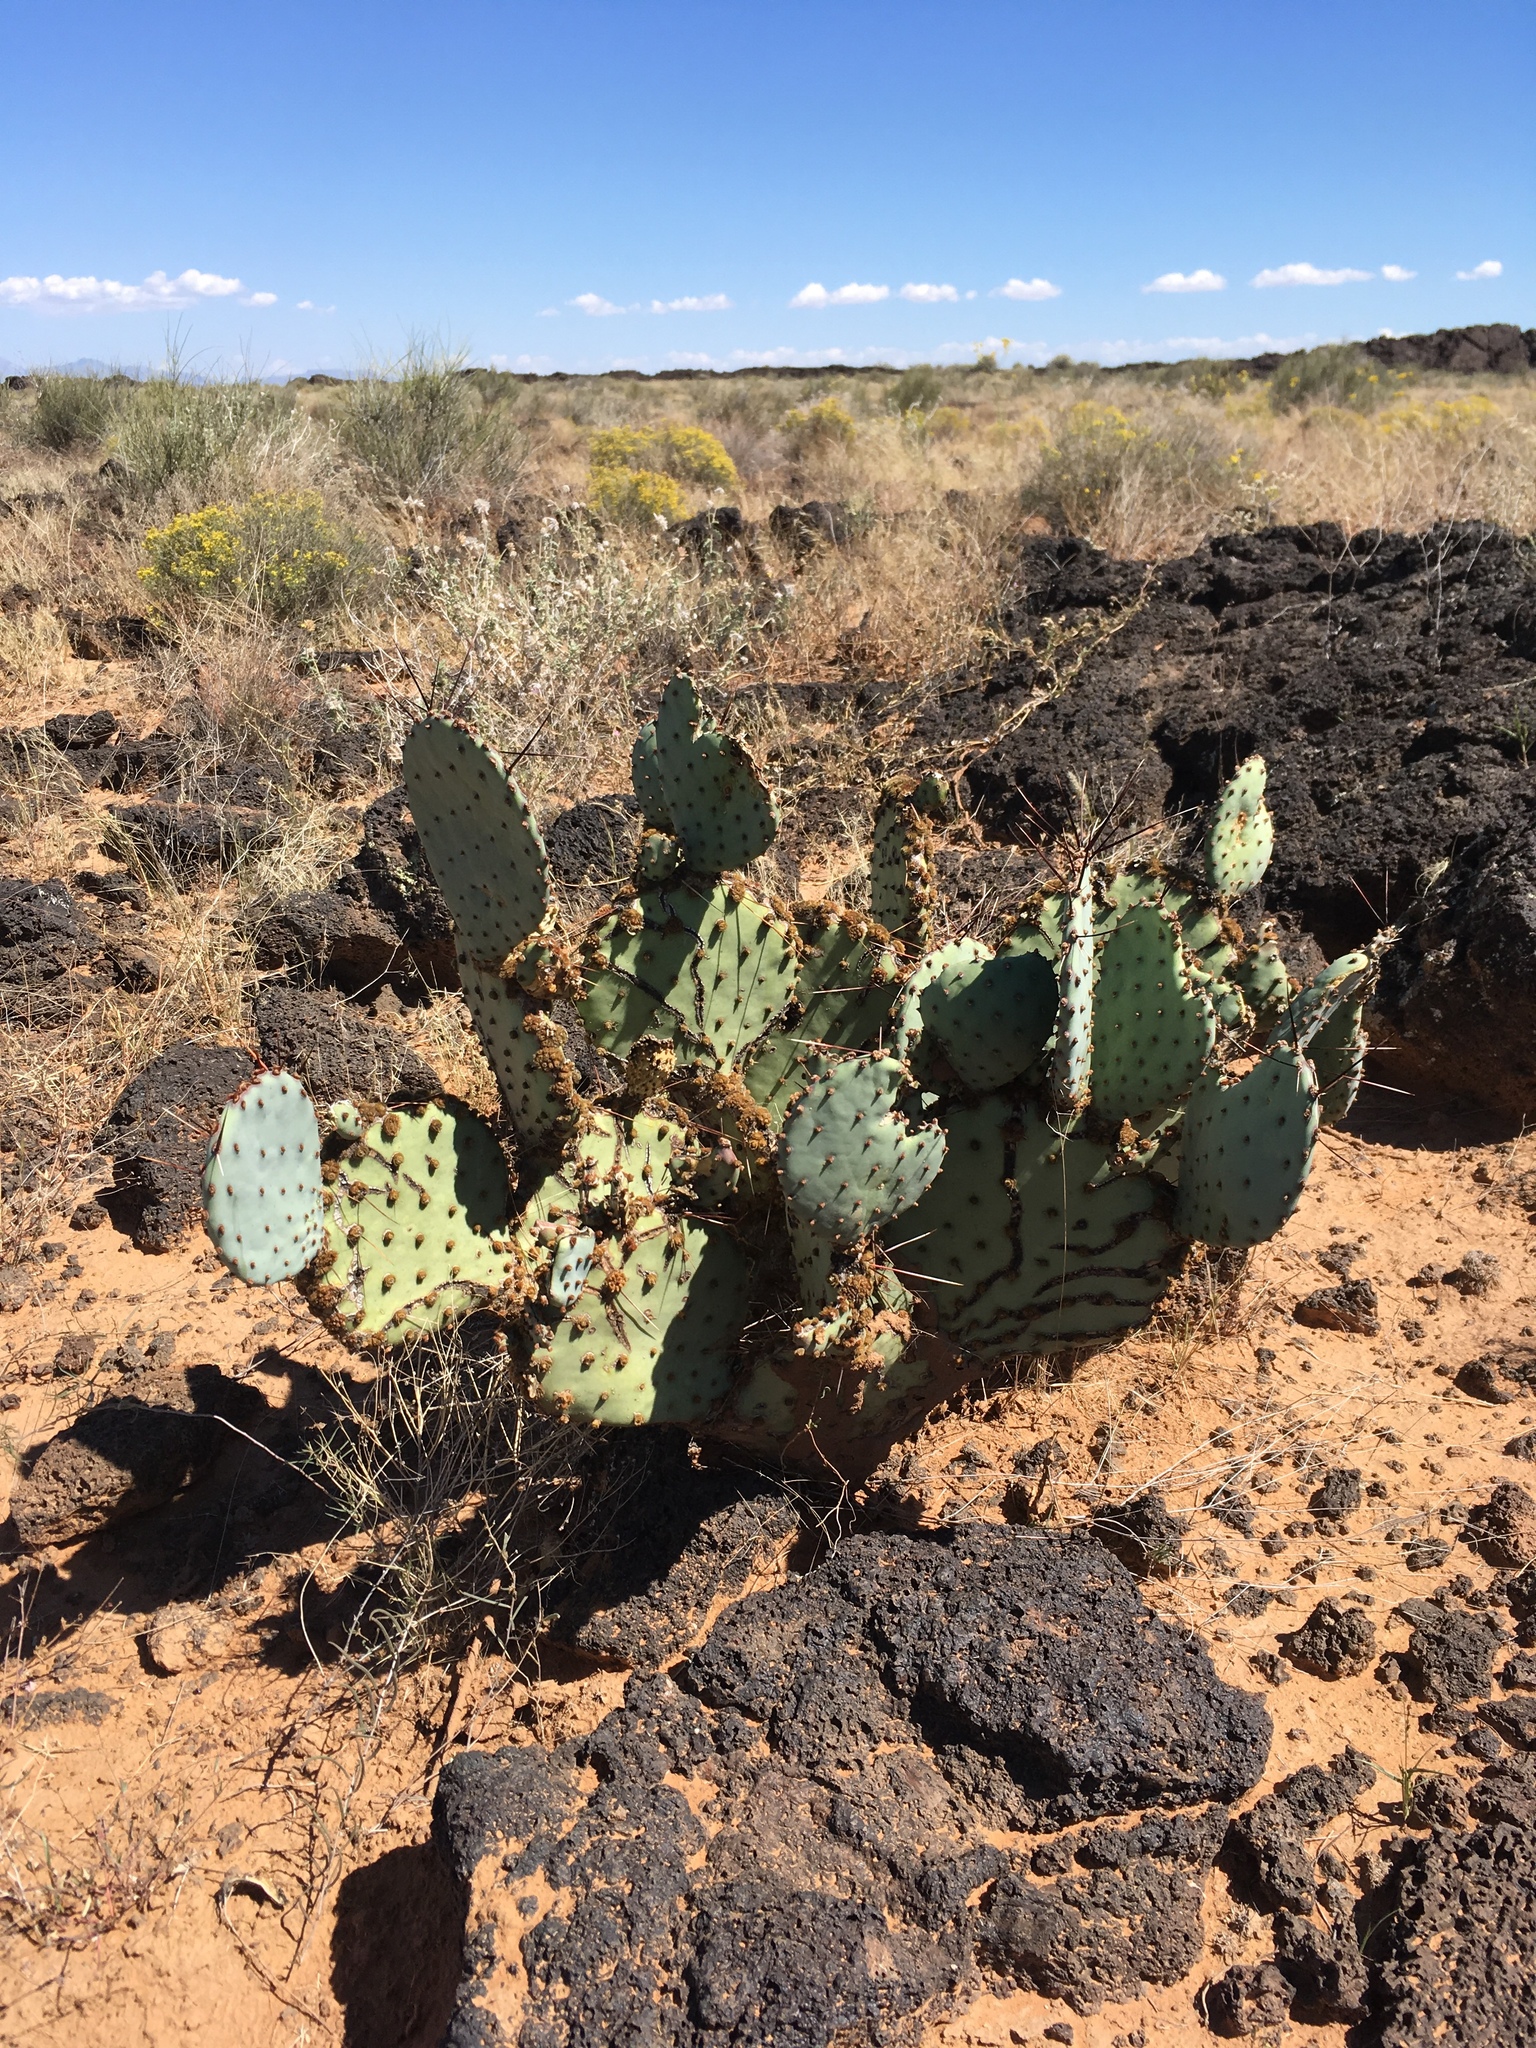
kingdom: Plantae
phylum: Tracheophyta
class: Magnoliopsida
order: Caryophyllales
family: Cactaceae
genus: Opuntia
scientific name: Opuntia macrocentra
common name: Purple prickly-pear
